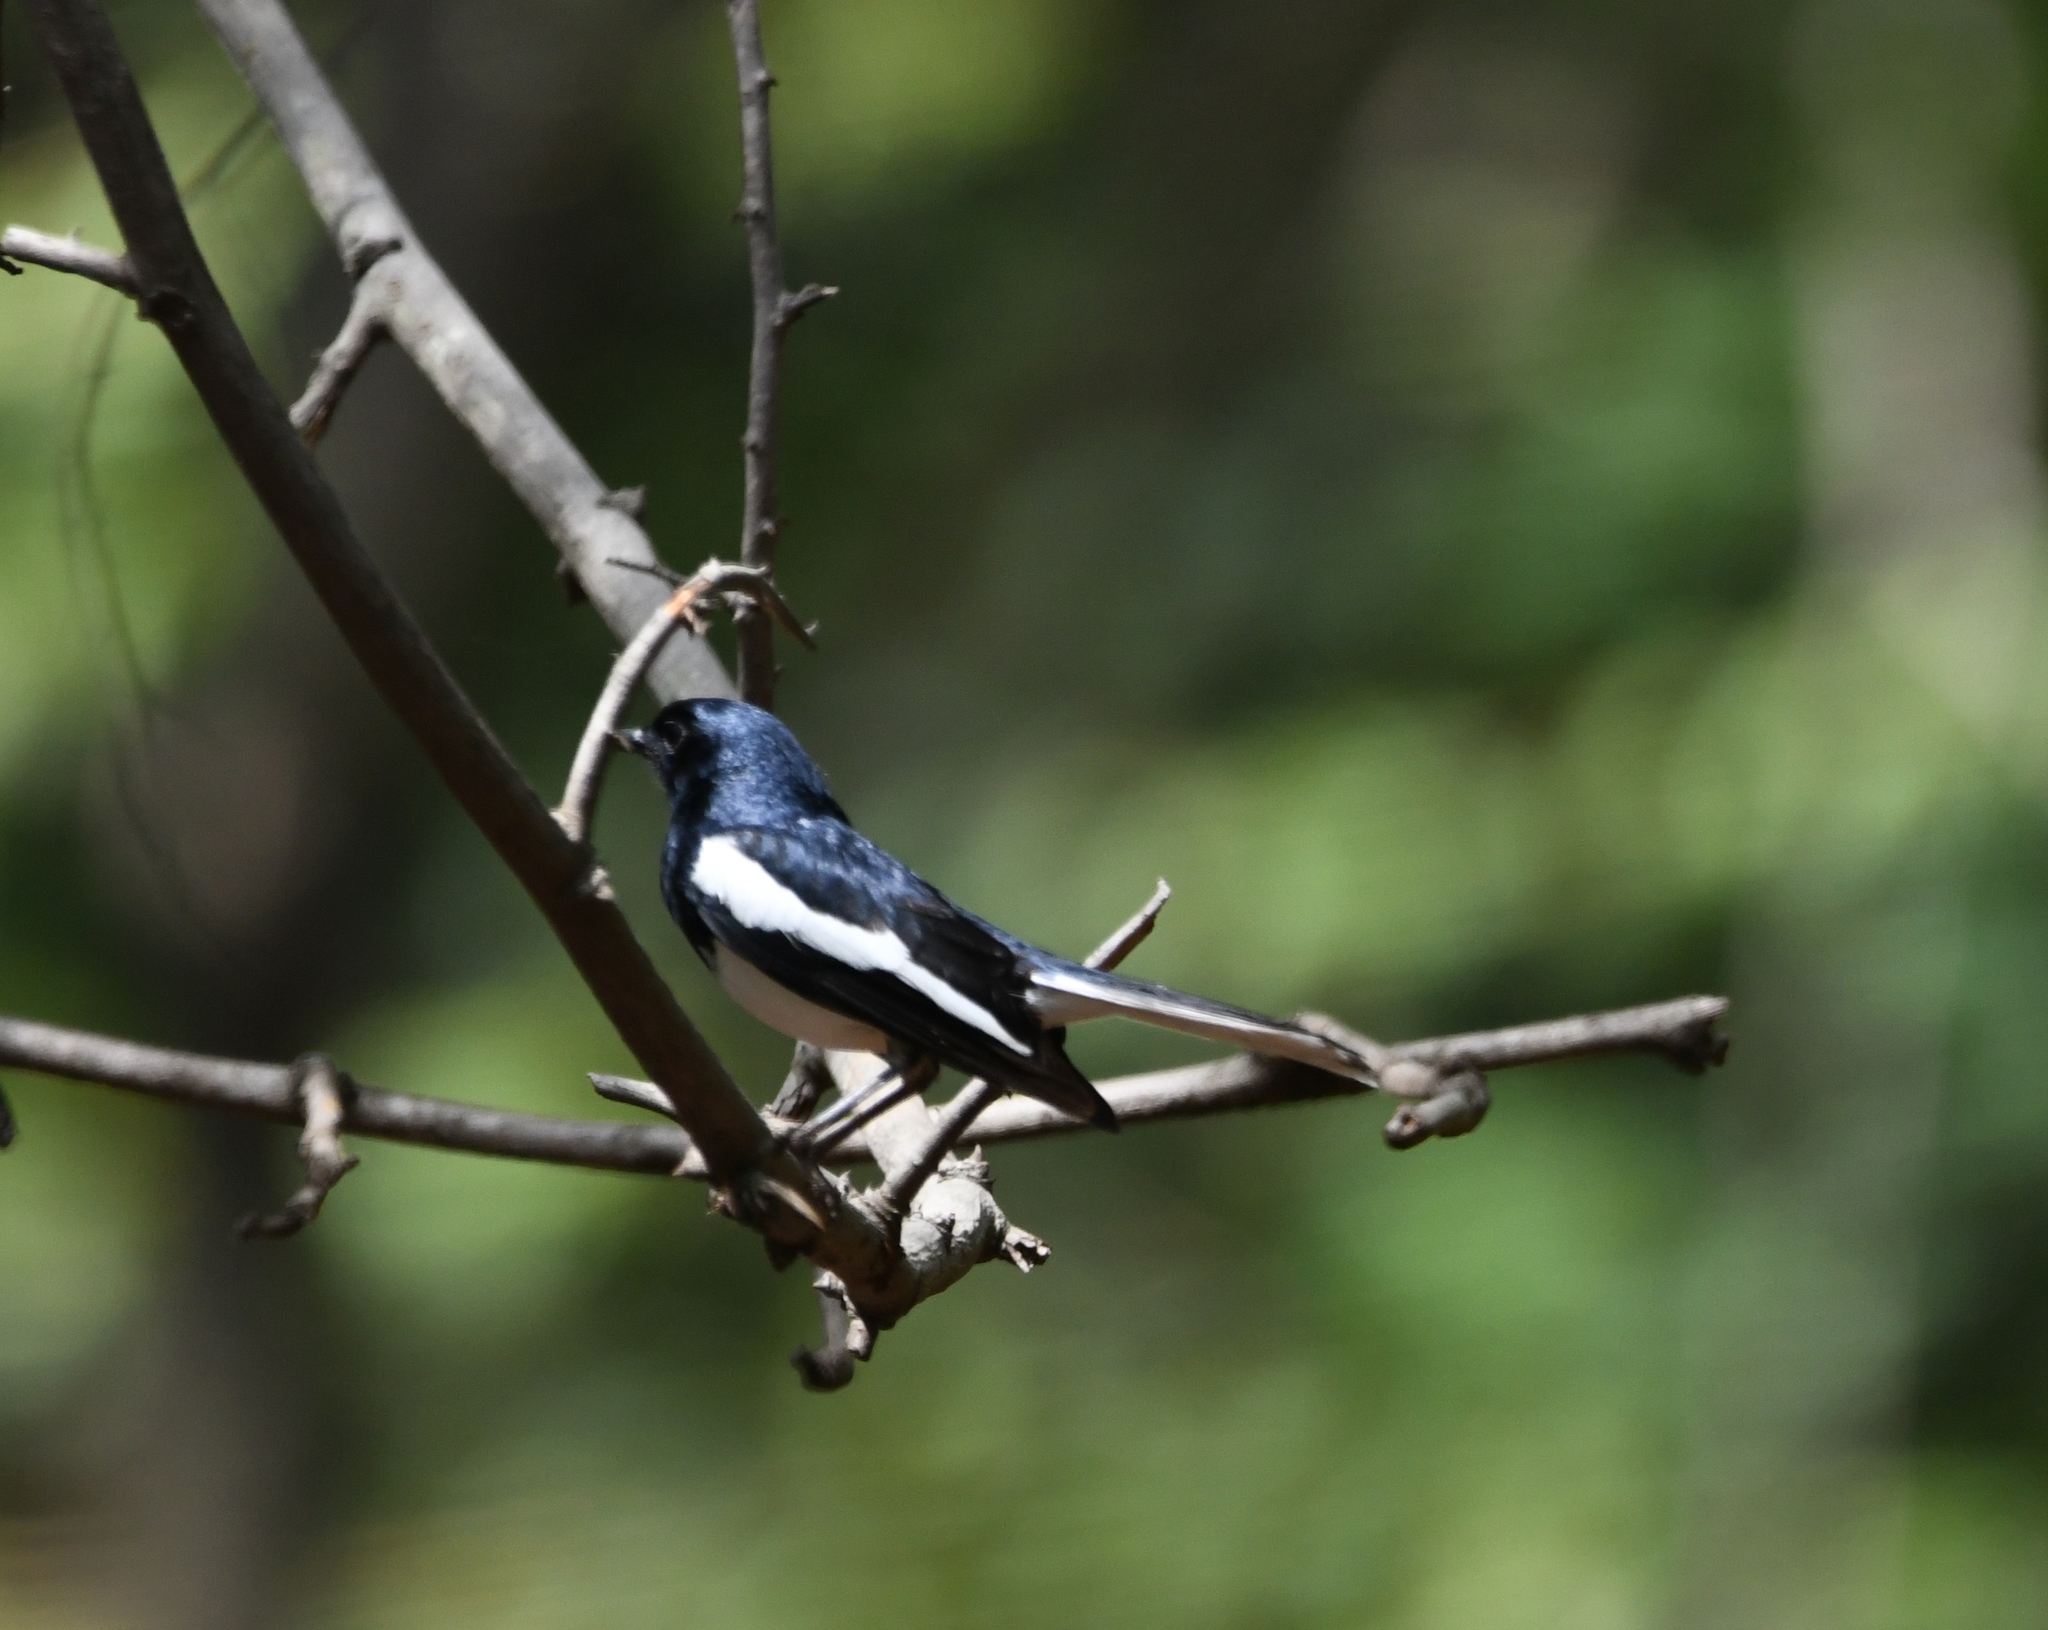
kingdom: Animalia
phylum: Chordata
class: Aves
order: Passeriformes
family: Muscicapidae
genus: Copsychus
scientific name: Copsychus saularis
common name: Oriental magpie-robin
